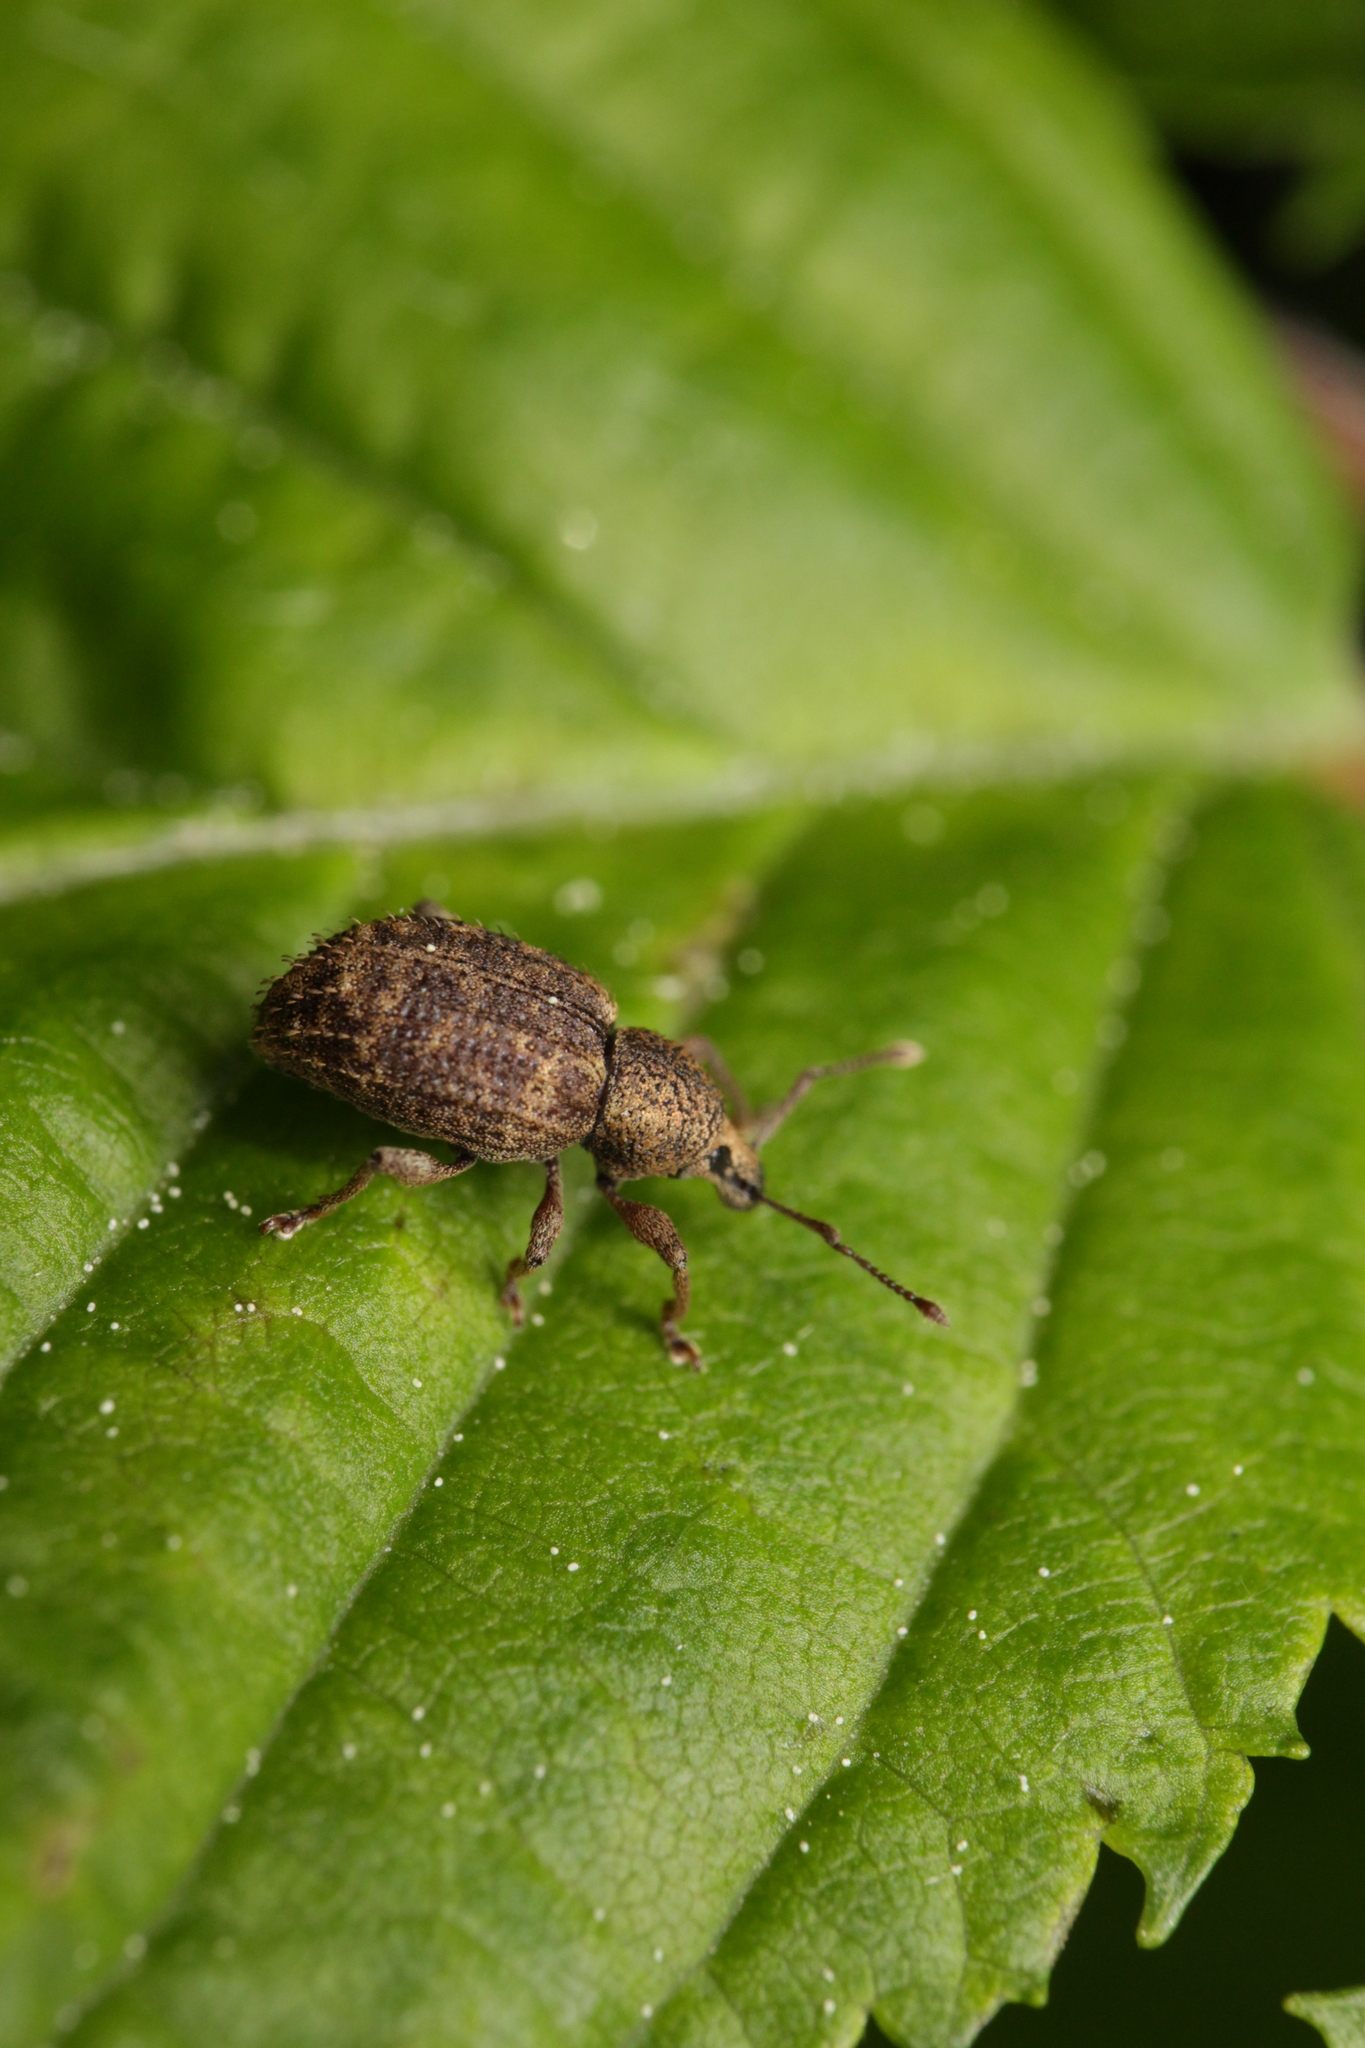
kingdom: Animalia
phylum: Arthropoda
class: Insecta
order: Coleoptera
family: Curculionidae
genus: Otiorhynchus
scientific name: Otiorhynchus carinatopunctatus
